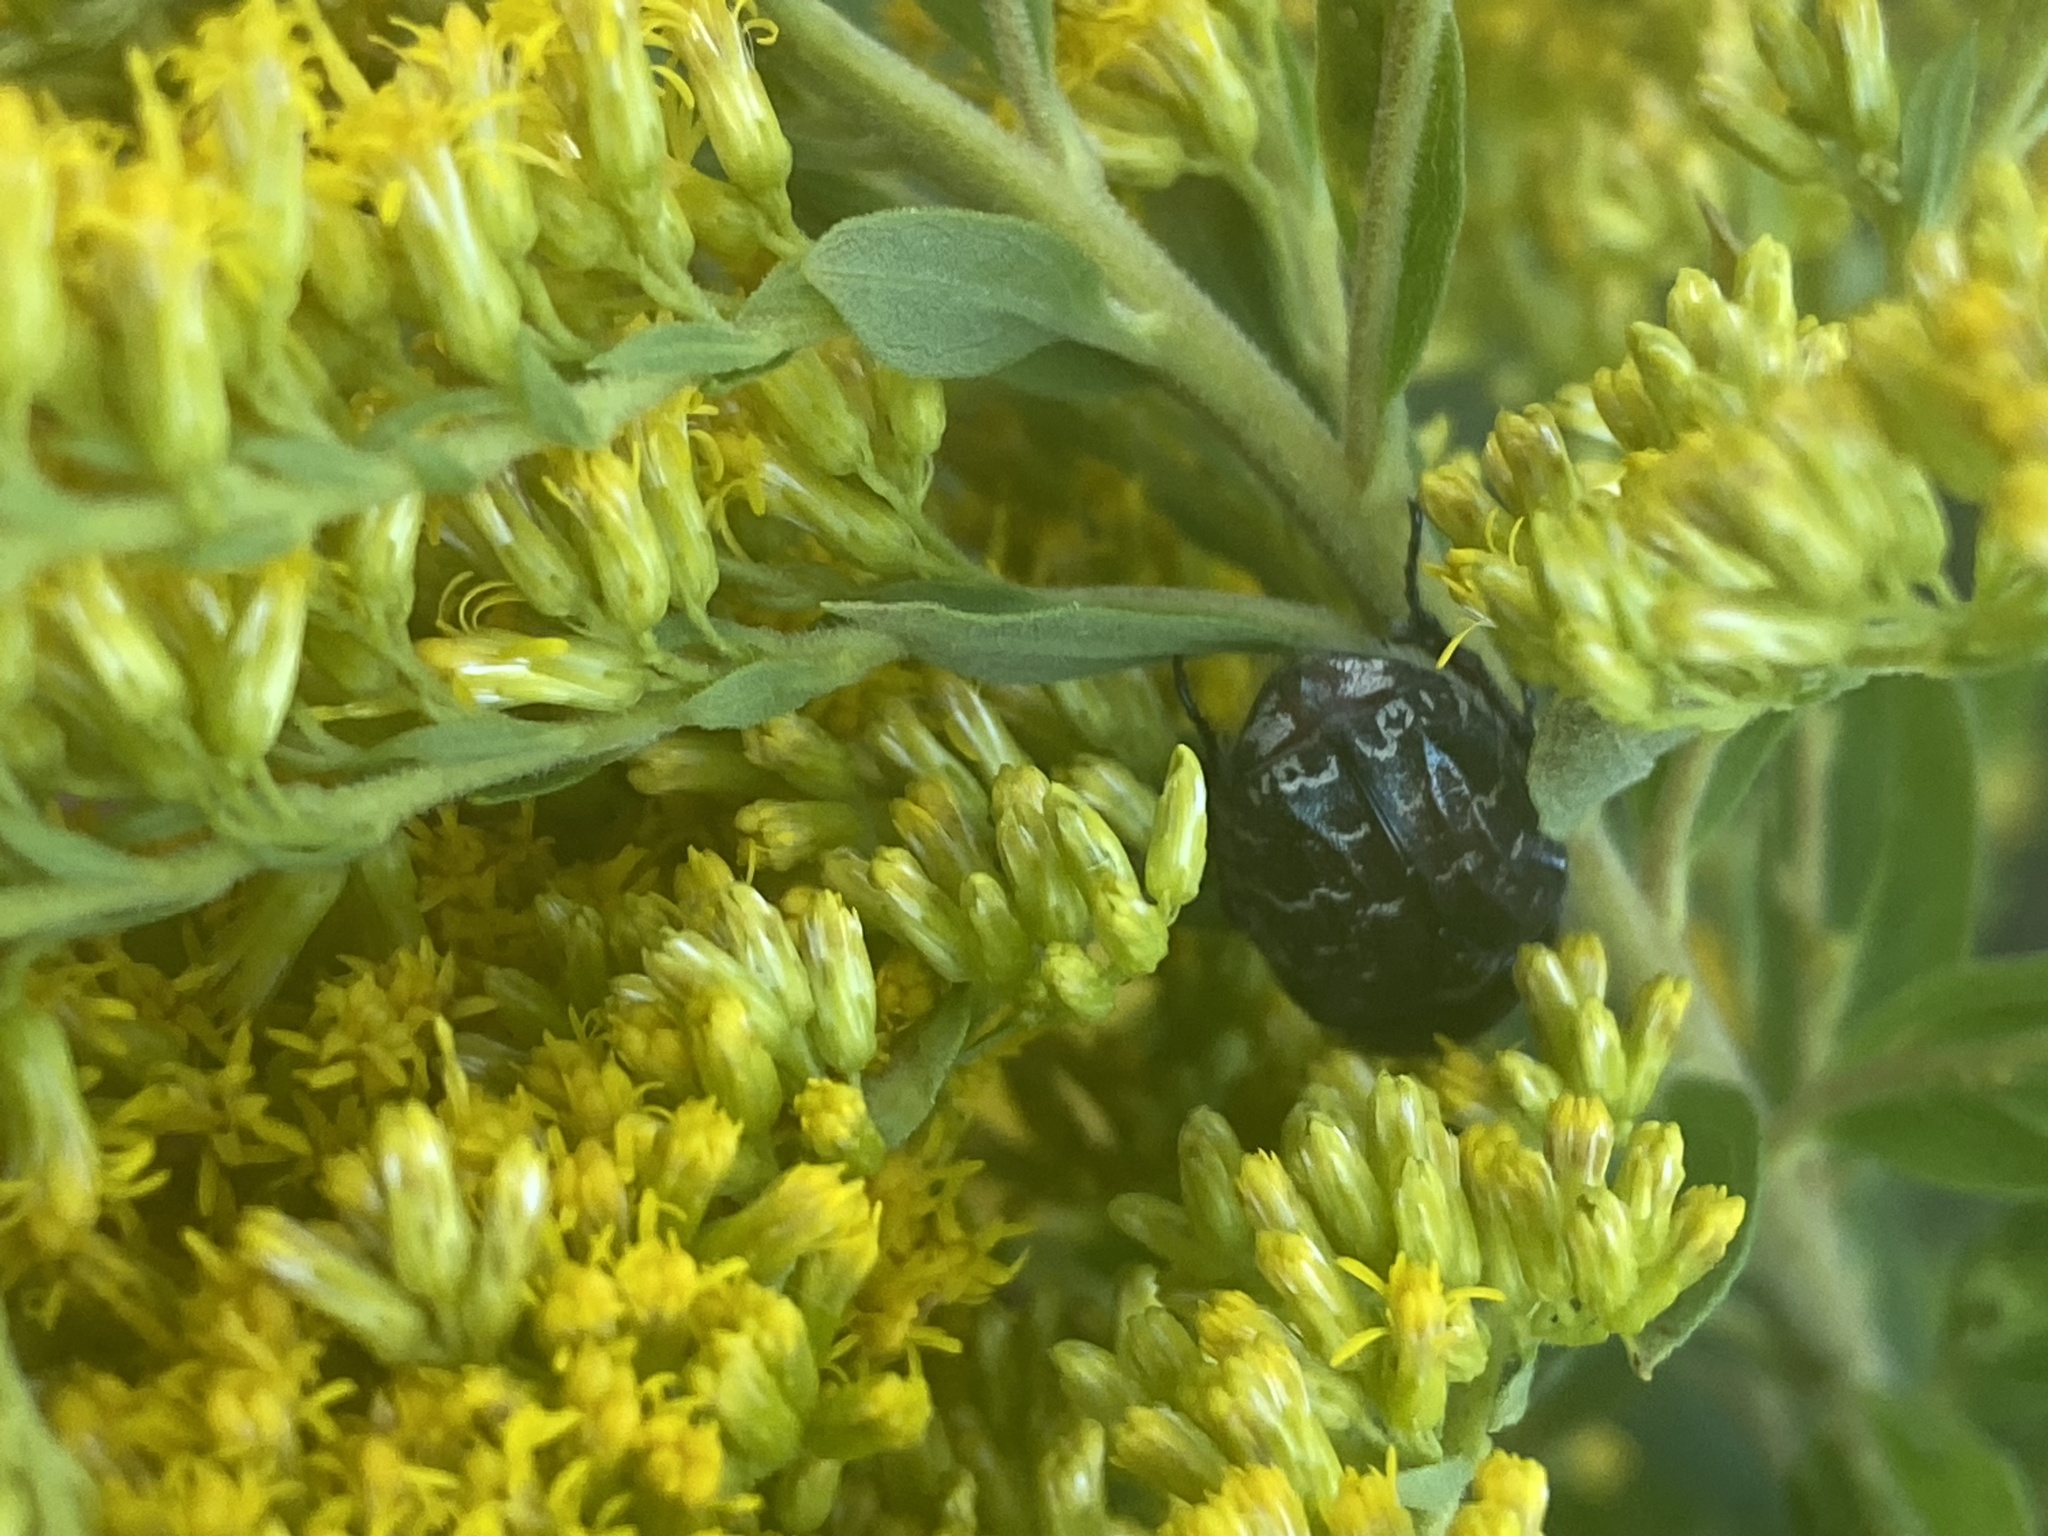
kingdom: Animalia
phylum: Arthropoda
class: Insecta
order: Coleoptera
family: Scarabaeidae
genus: Euphoria
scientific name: Euphoria sepulcralis
